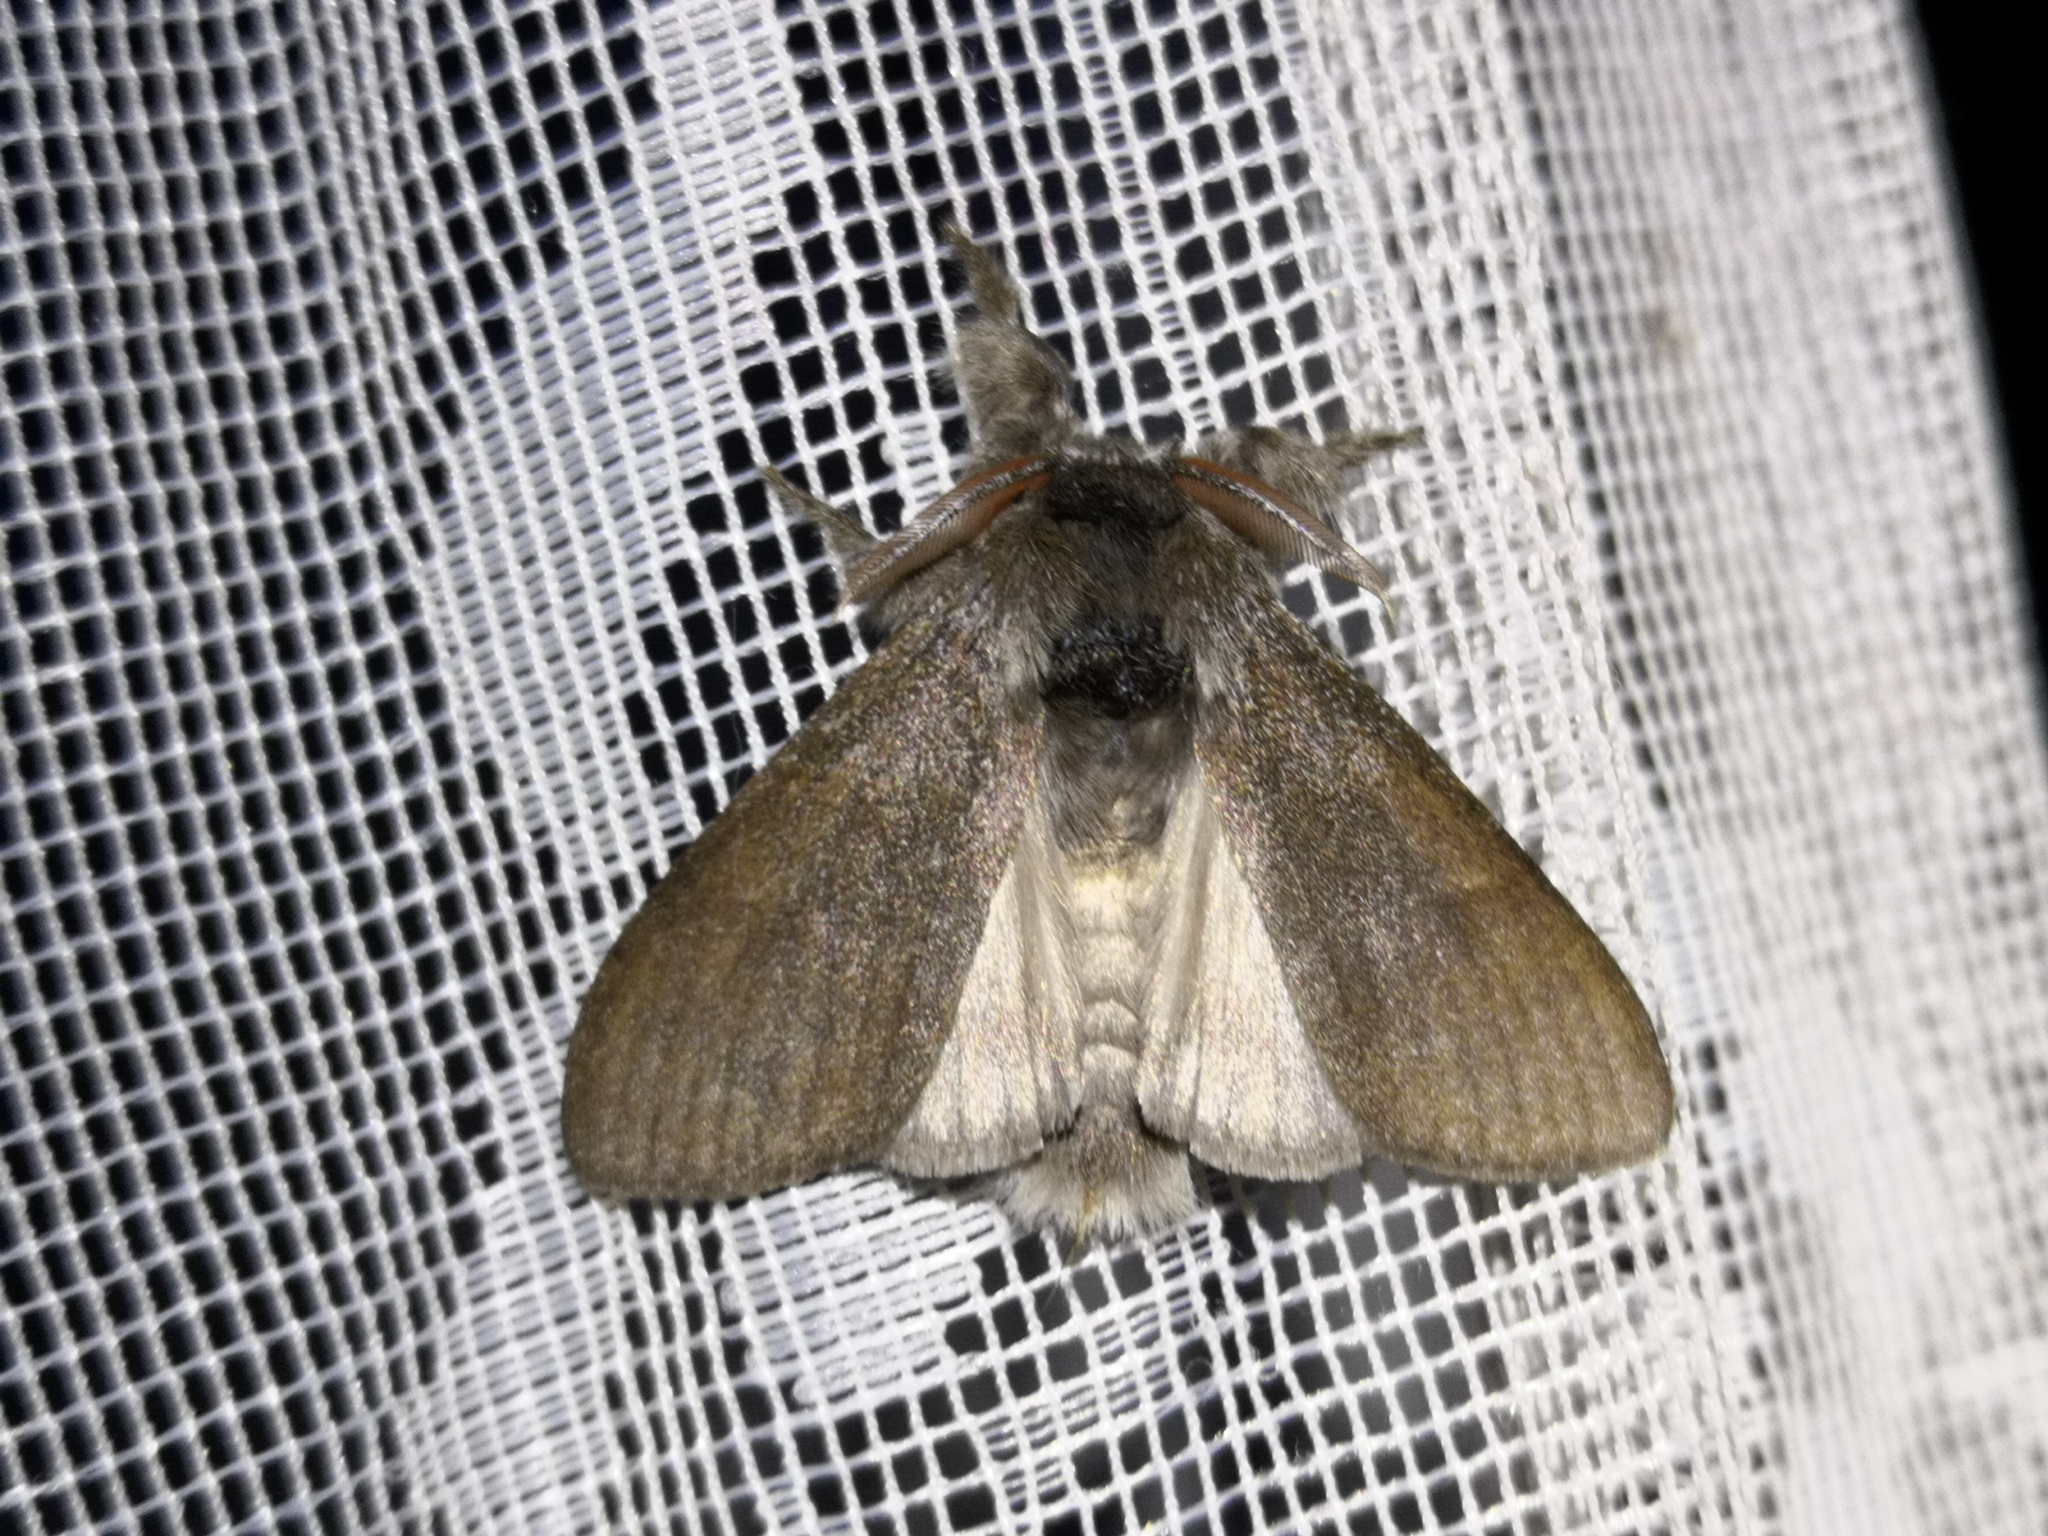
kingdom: Animalia
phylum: Arthropoda
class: Insecta
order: Lepidoptera
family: Erebidae
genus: Calliteara
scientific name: Calliteara pudibunda
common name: Pale tussock
